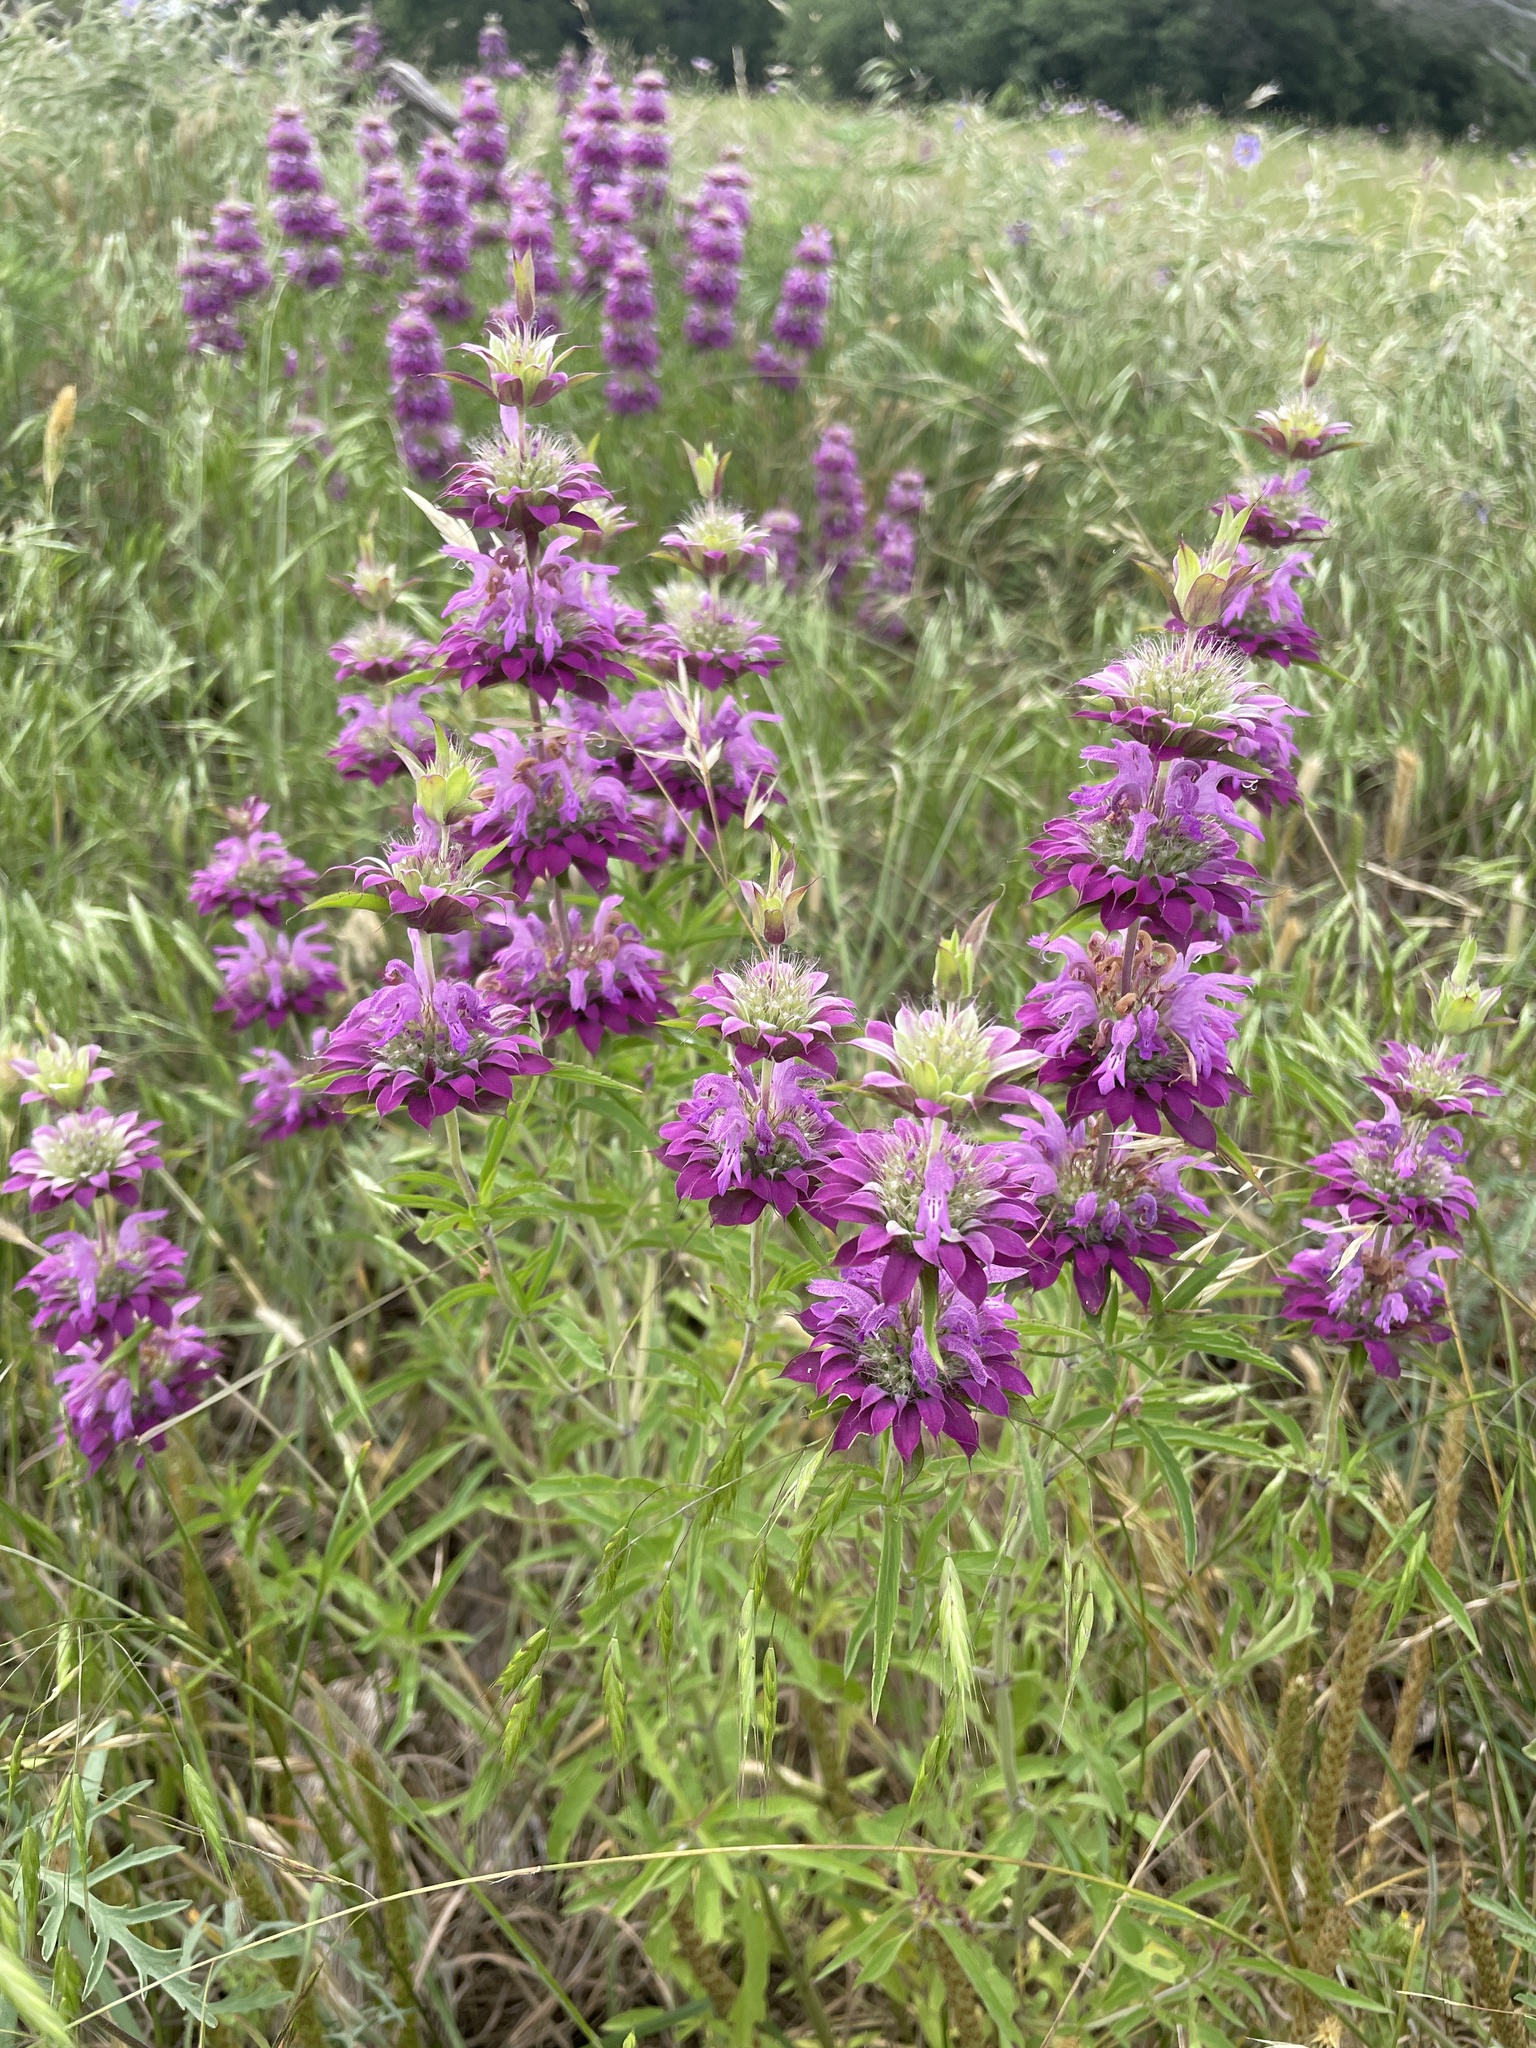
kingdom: Plantae
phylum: Tracheophyta
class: Magnoliopsida
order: Lamiales
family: Lamiaceae
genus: Monarda
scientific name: Monarda citriodora
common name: Lemon beebalm
